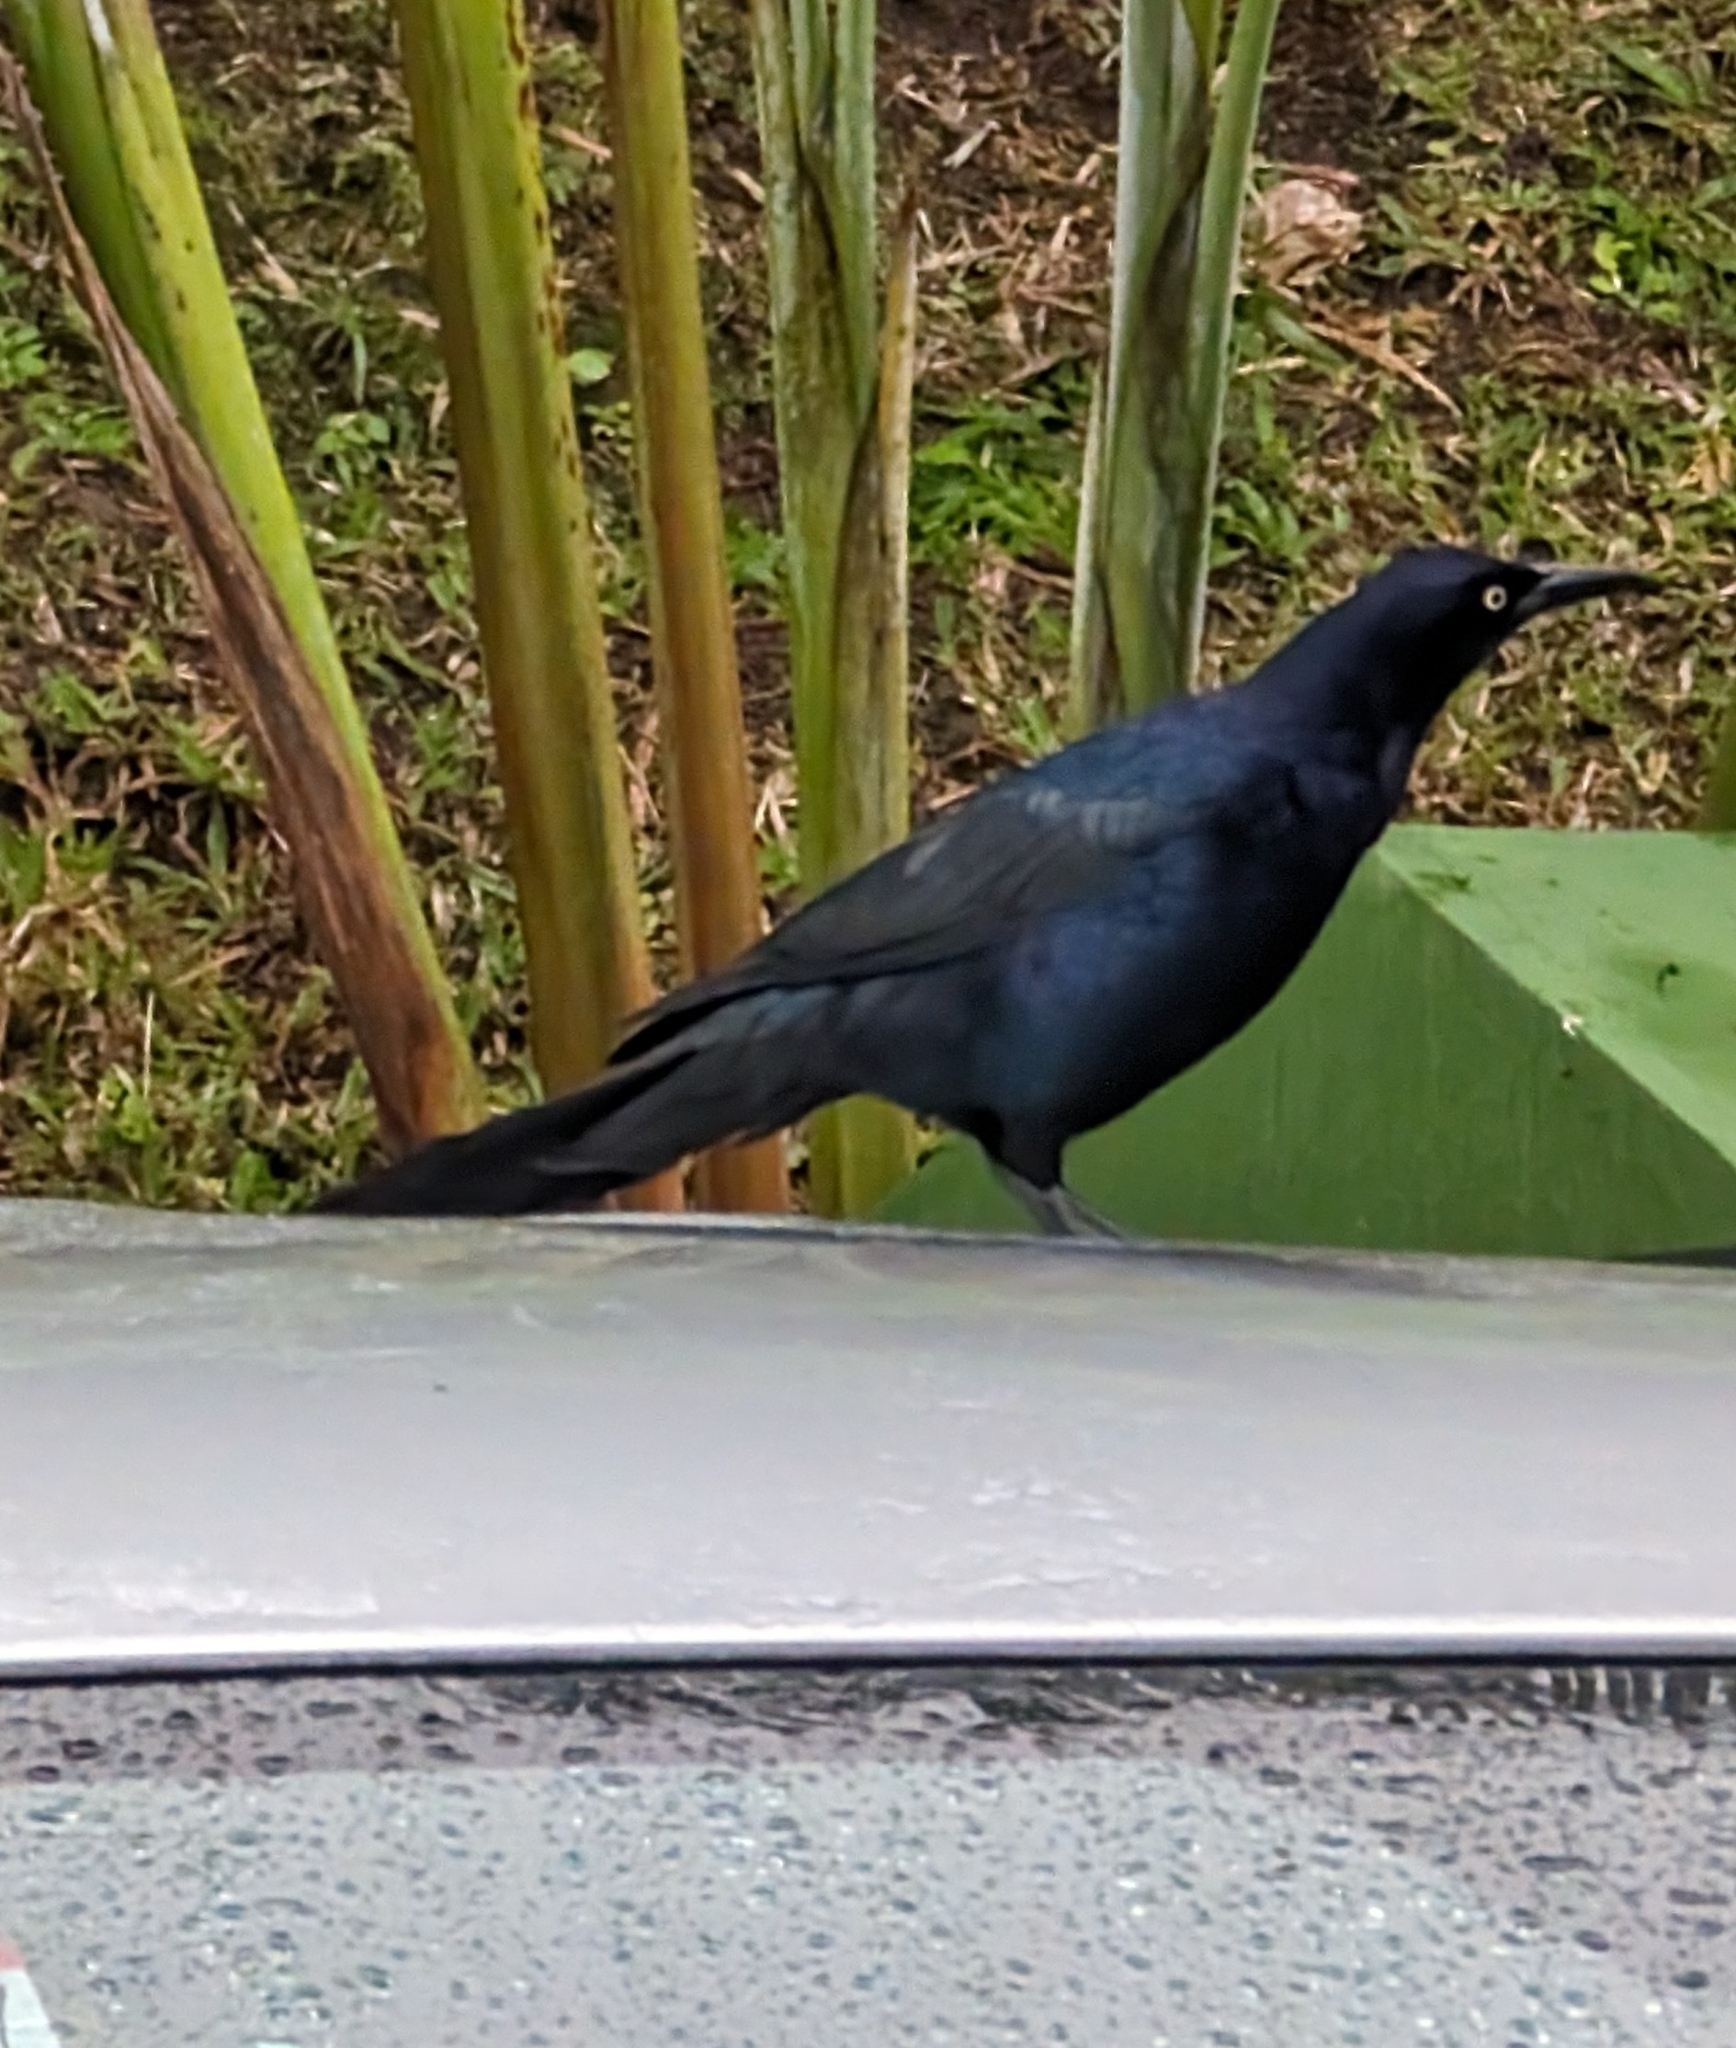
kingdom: Animalia
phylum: Chordata
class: Aves
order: Passeriformes
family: Icteridae
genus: Quiscalus
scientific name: Quiscalus mexicanus
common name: Great-tailed grackle
